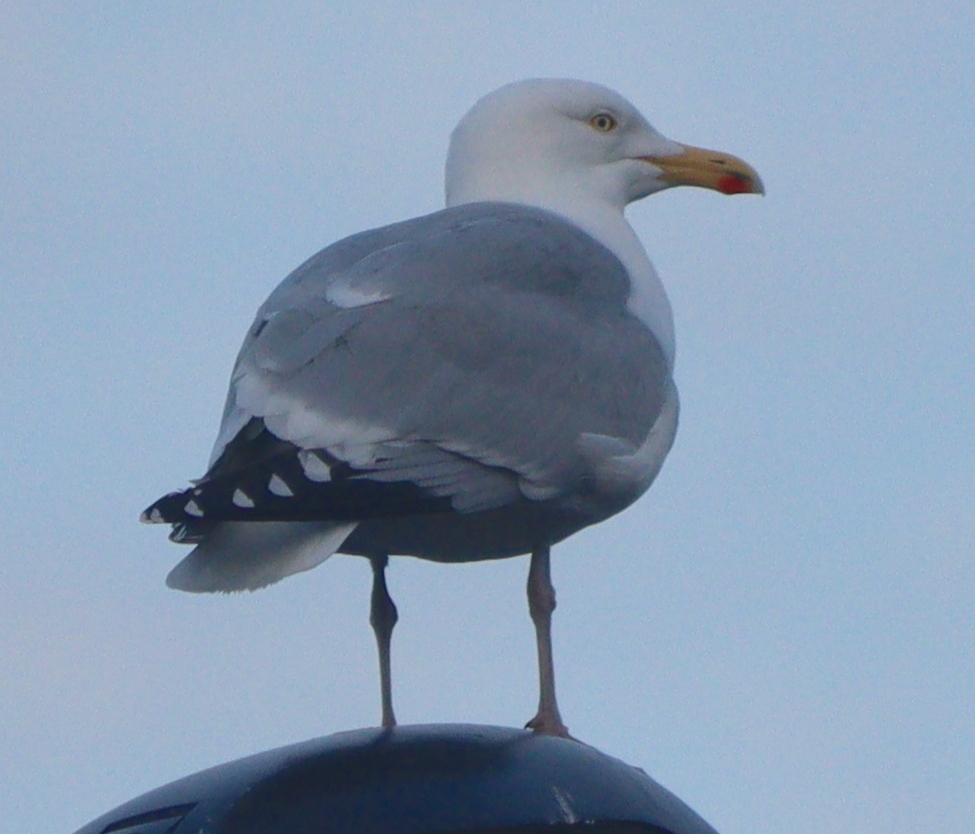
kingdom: Animalia
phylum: Chordata
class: Aves
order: Charadriiformes
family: Laridae
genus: Larus
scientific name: Larus argentatus
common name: Herring gull
